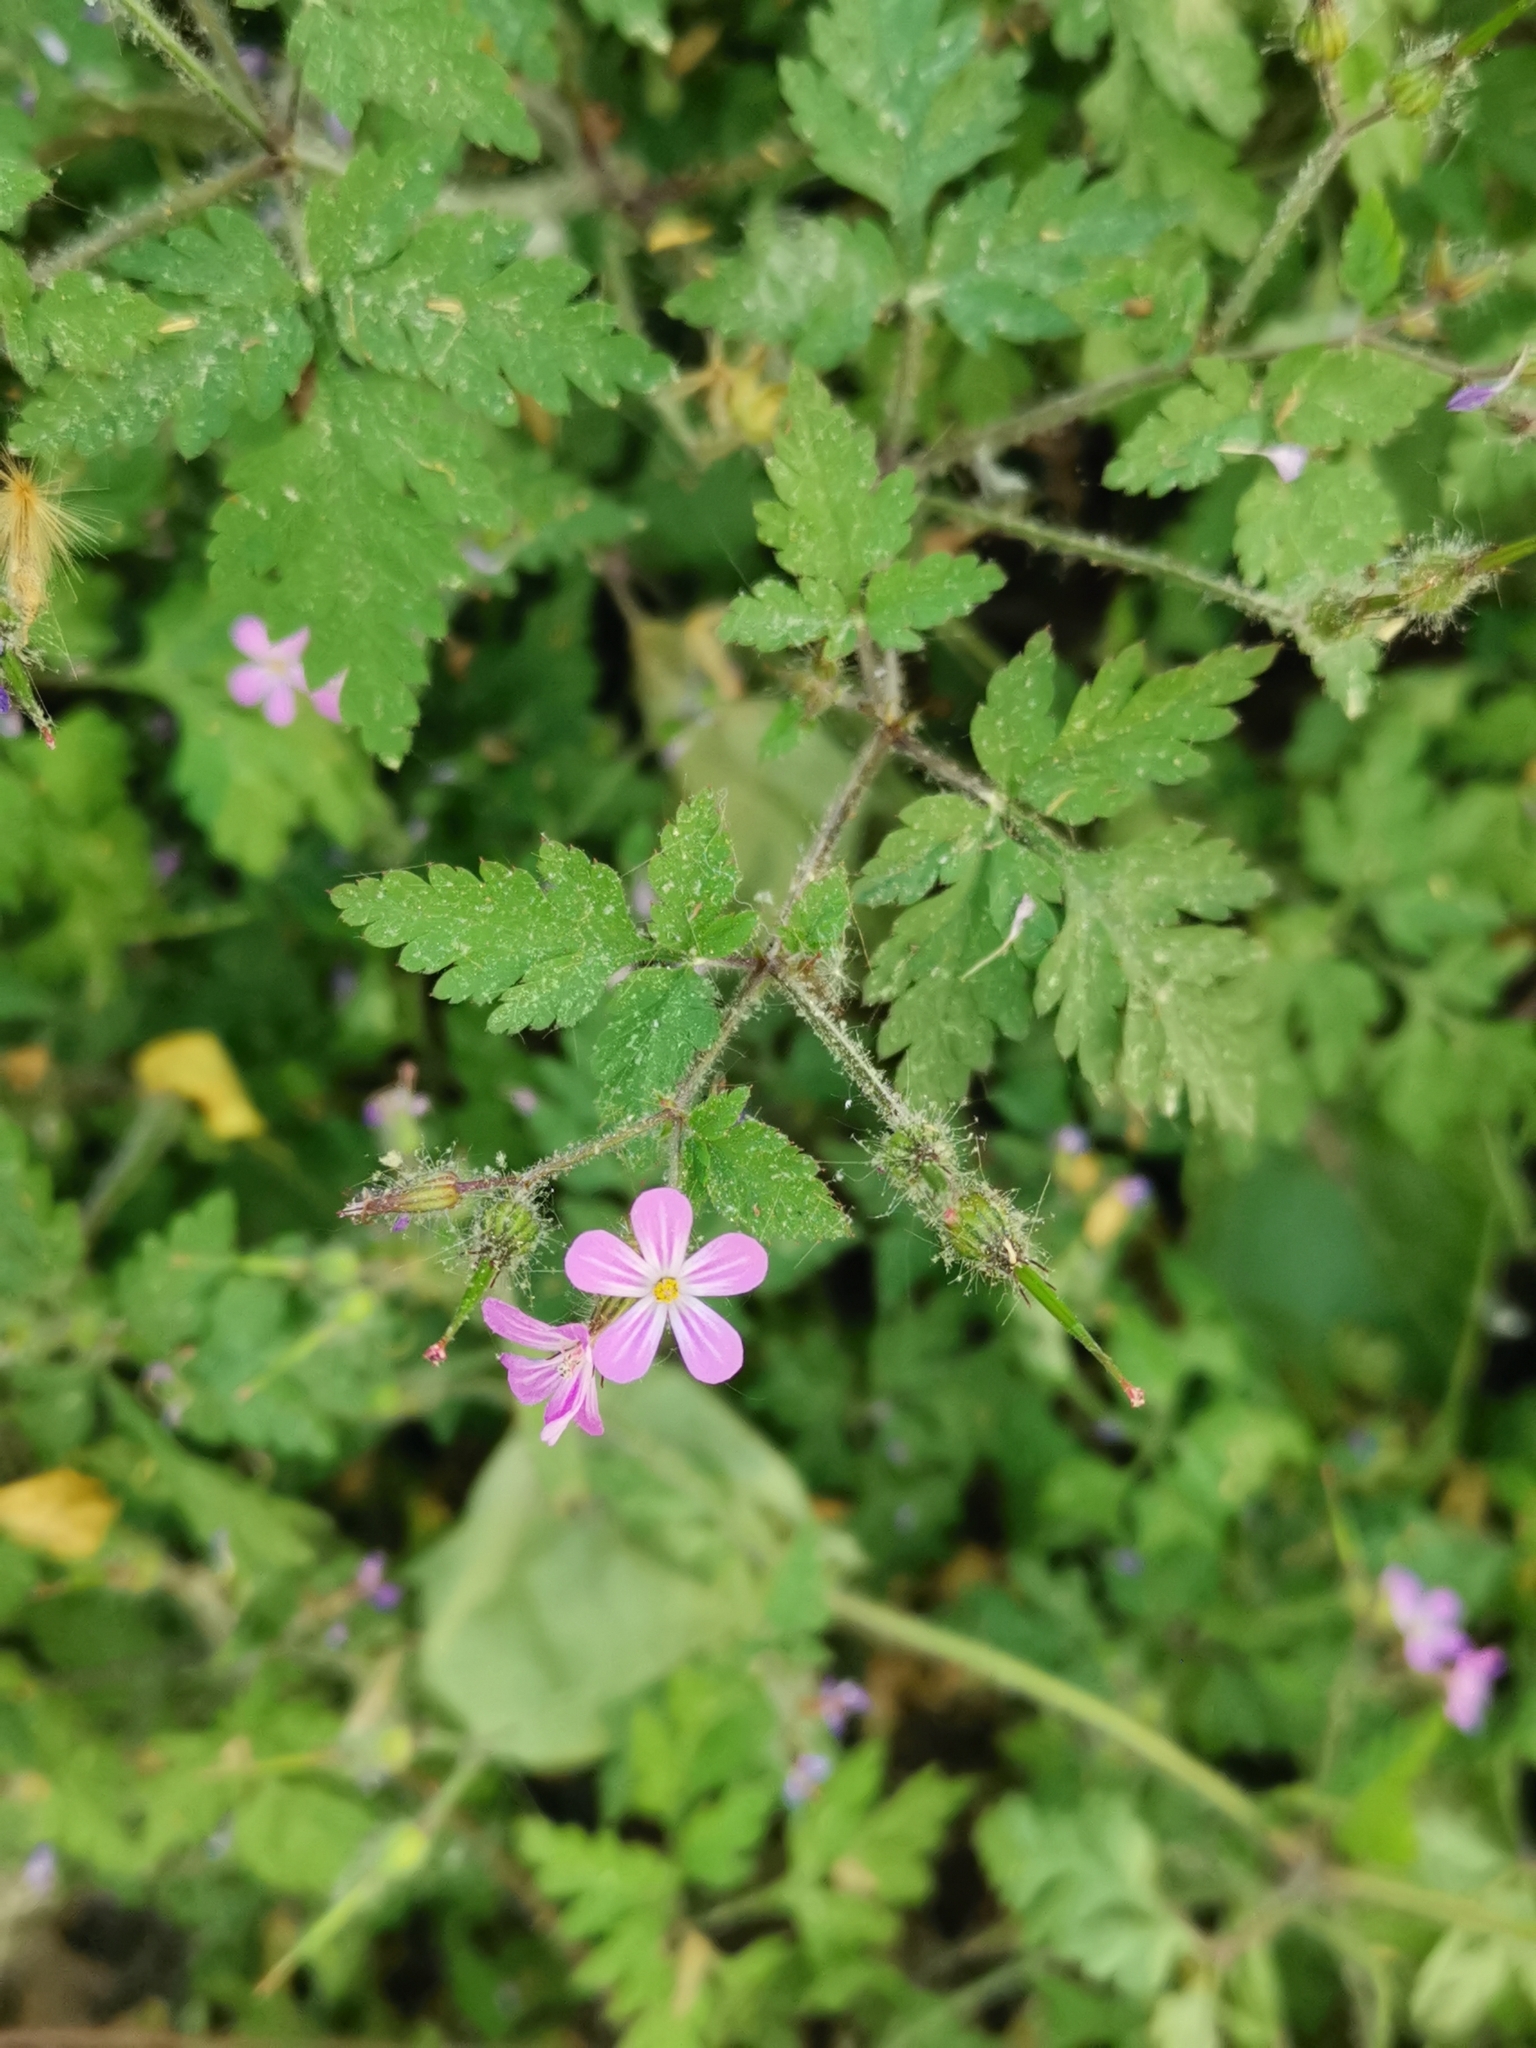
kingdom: Plantae
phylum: Tracheophyta
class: Magnoliopsida
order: Geraniales
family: Geraniaceae
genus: Geranium
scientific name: Geranium robertianum
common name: Herb-robert
